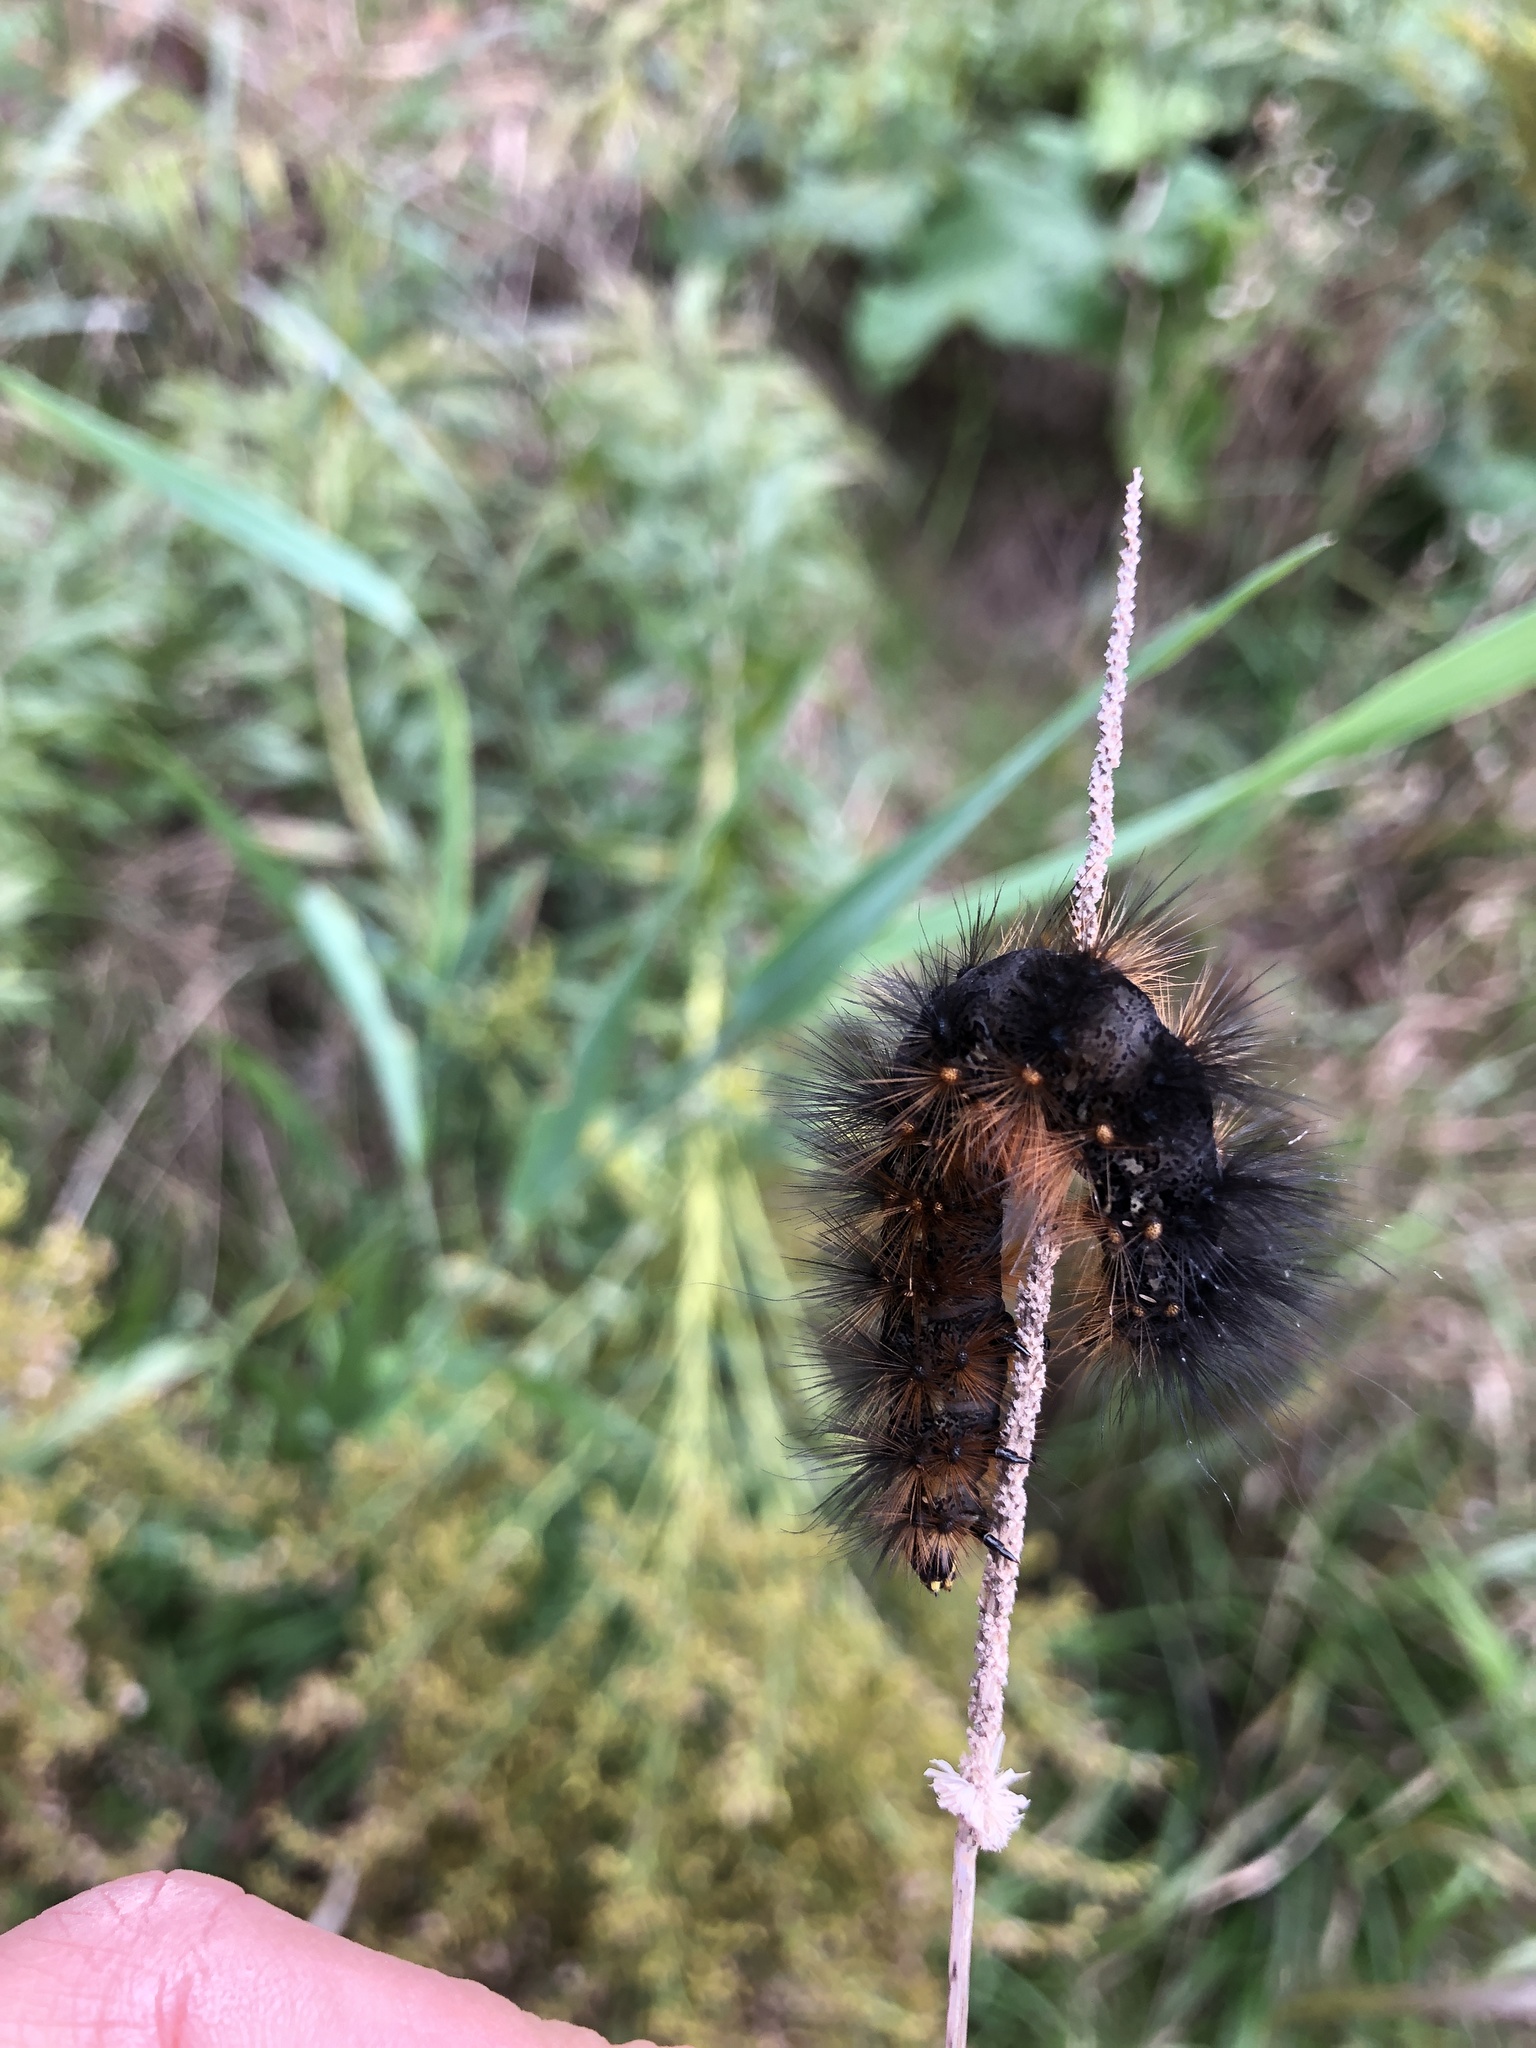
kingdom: Animalia
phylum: Arthropoda
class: Insecta
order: Lepidoptera
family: Erebidae
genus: Estigmene
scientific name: Estigmene acrea
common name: Salt marsh moth
